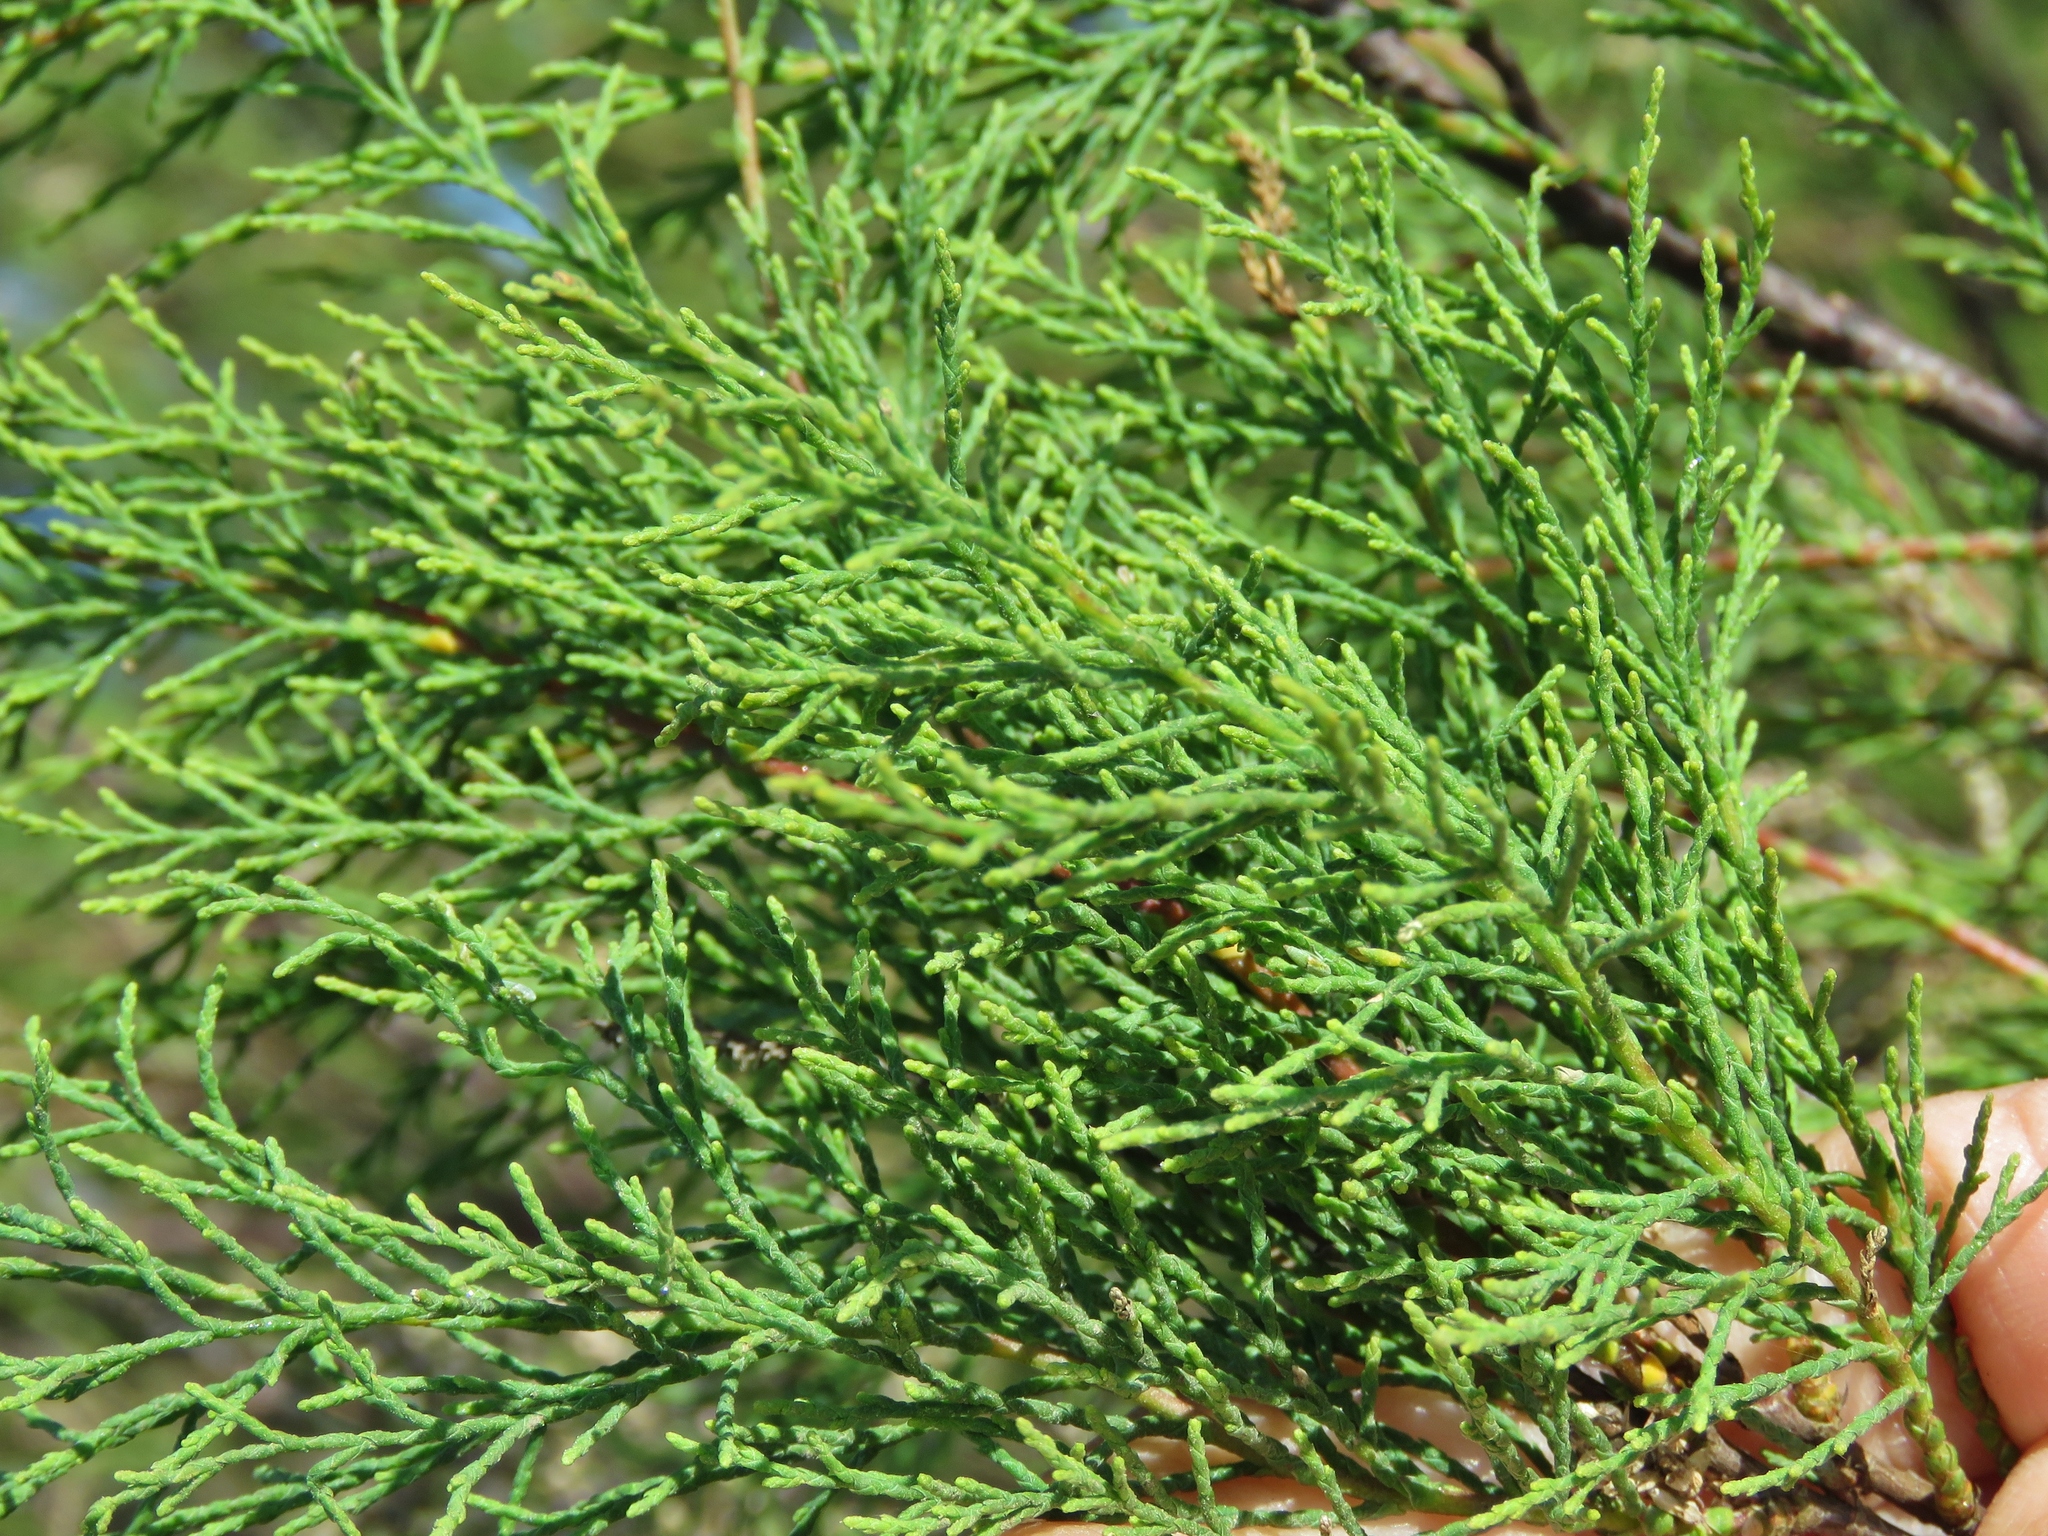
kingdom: Plantae
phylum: Tracheophyta
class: Magnoliopsida
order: Caryophyllales
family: Tamaricaceae
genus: Tamarix
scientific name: Tamarix
